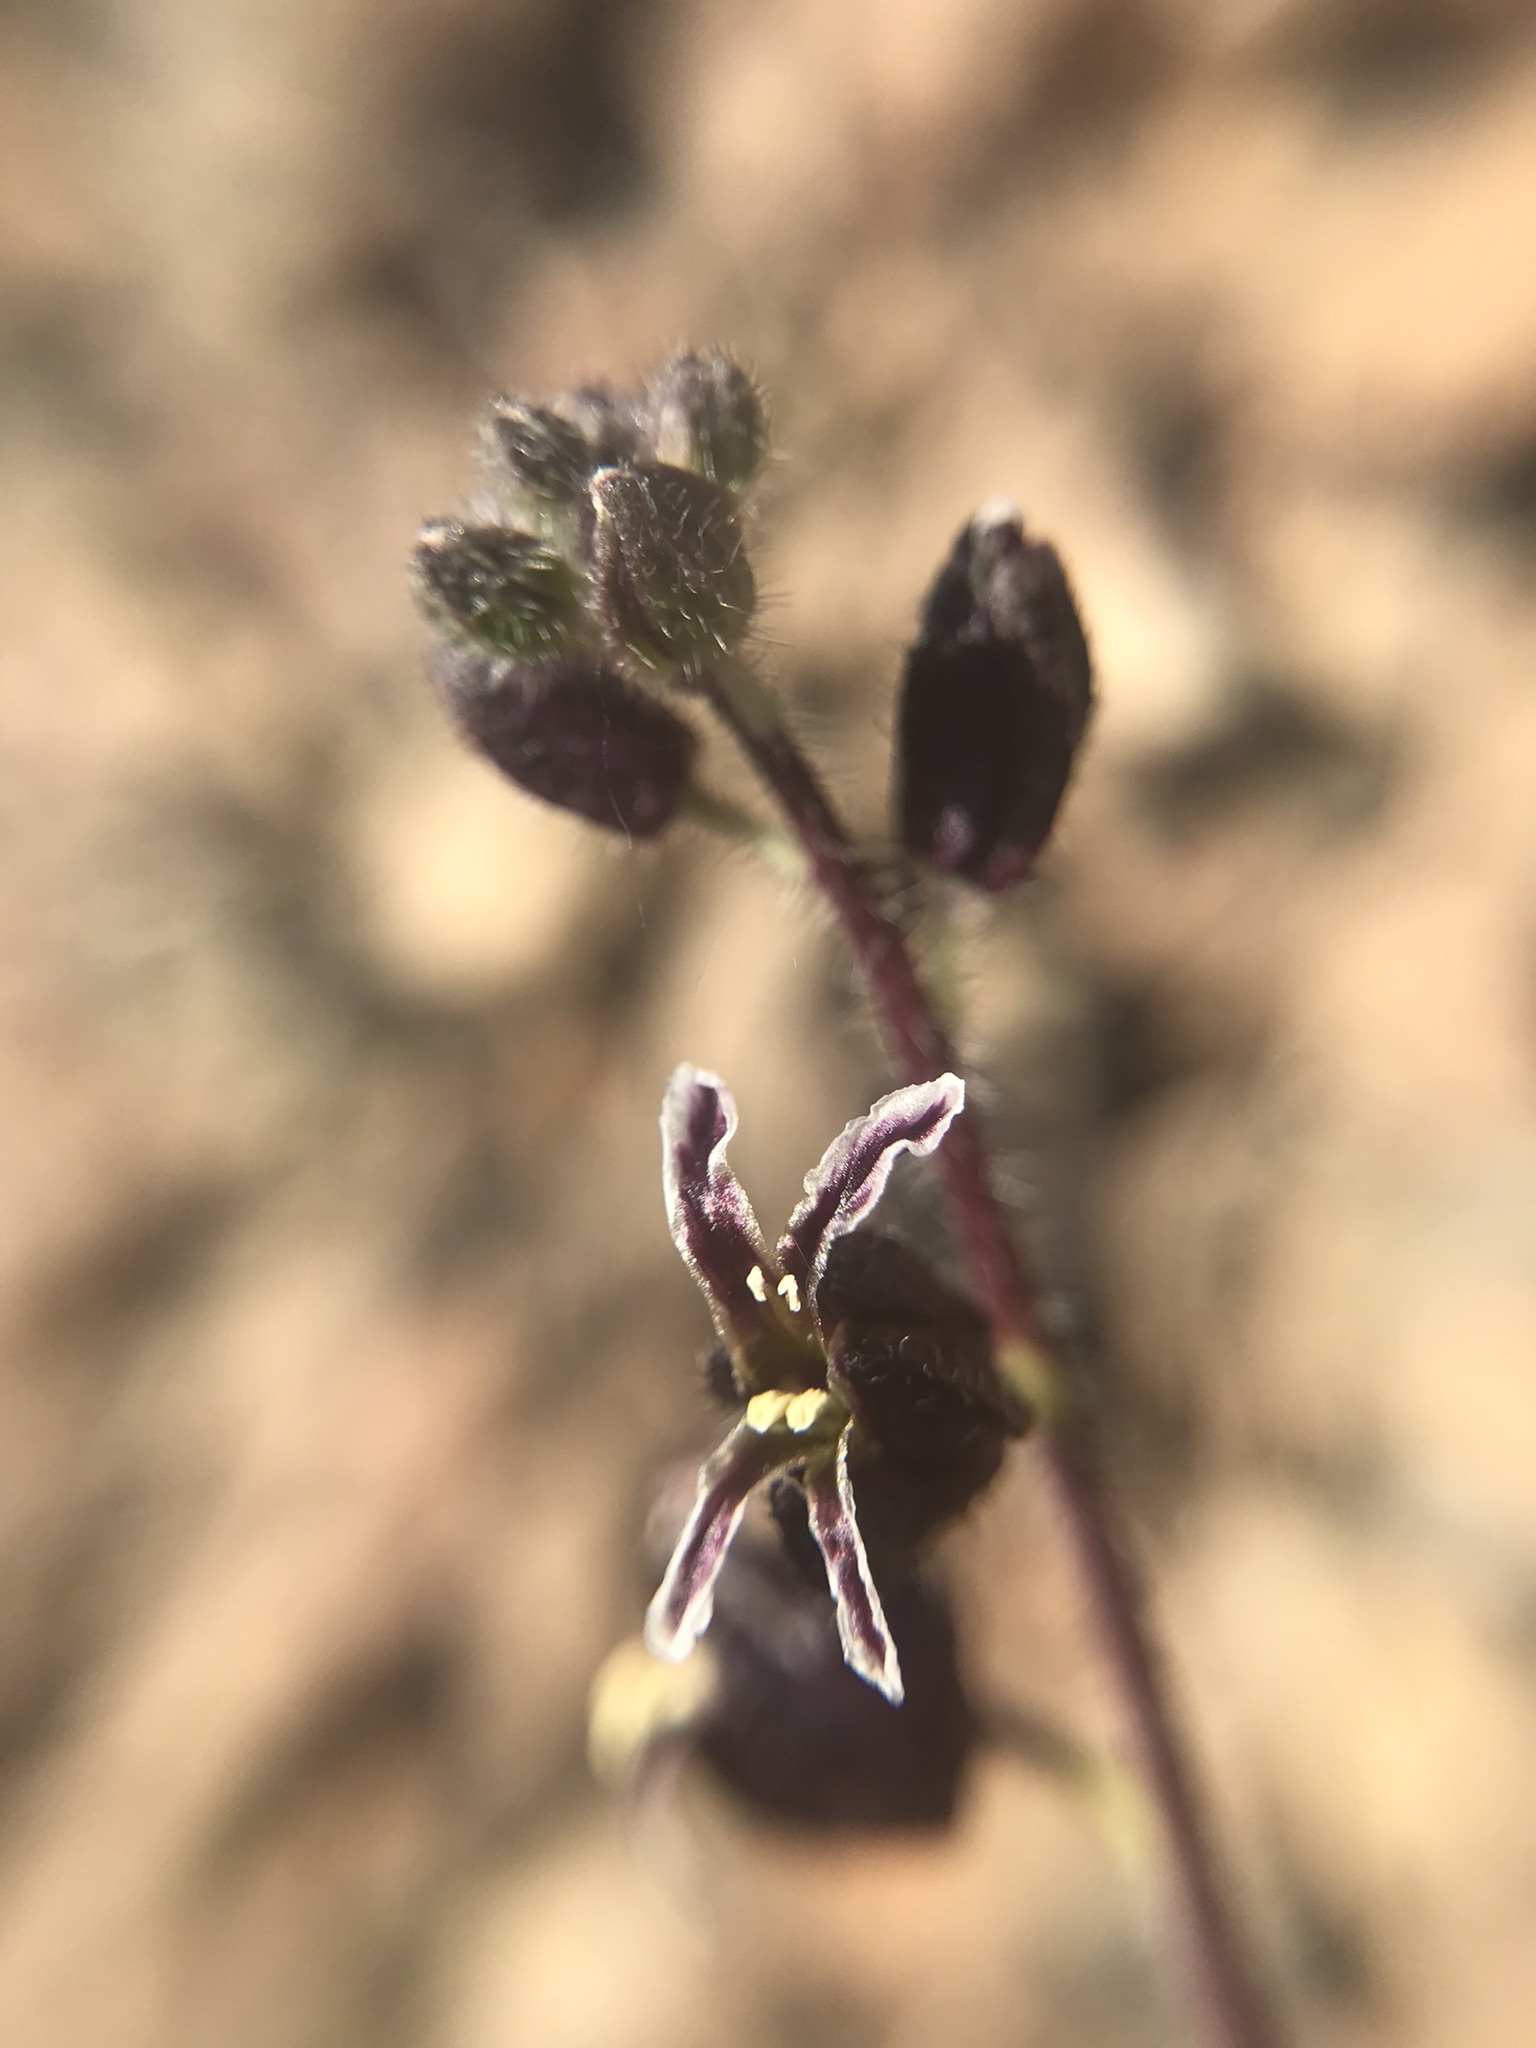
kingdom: Plantae
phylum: Tracheophyta
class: Magnoliopsida
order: Brassicales
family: Brassicaceae
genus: Streptanthus
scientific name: Streptanthus glandulosus
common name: Jewel-flower
